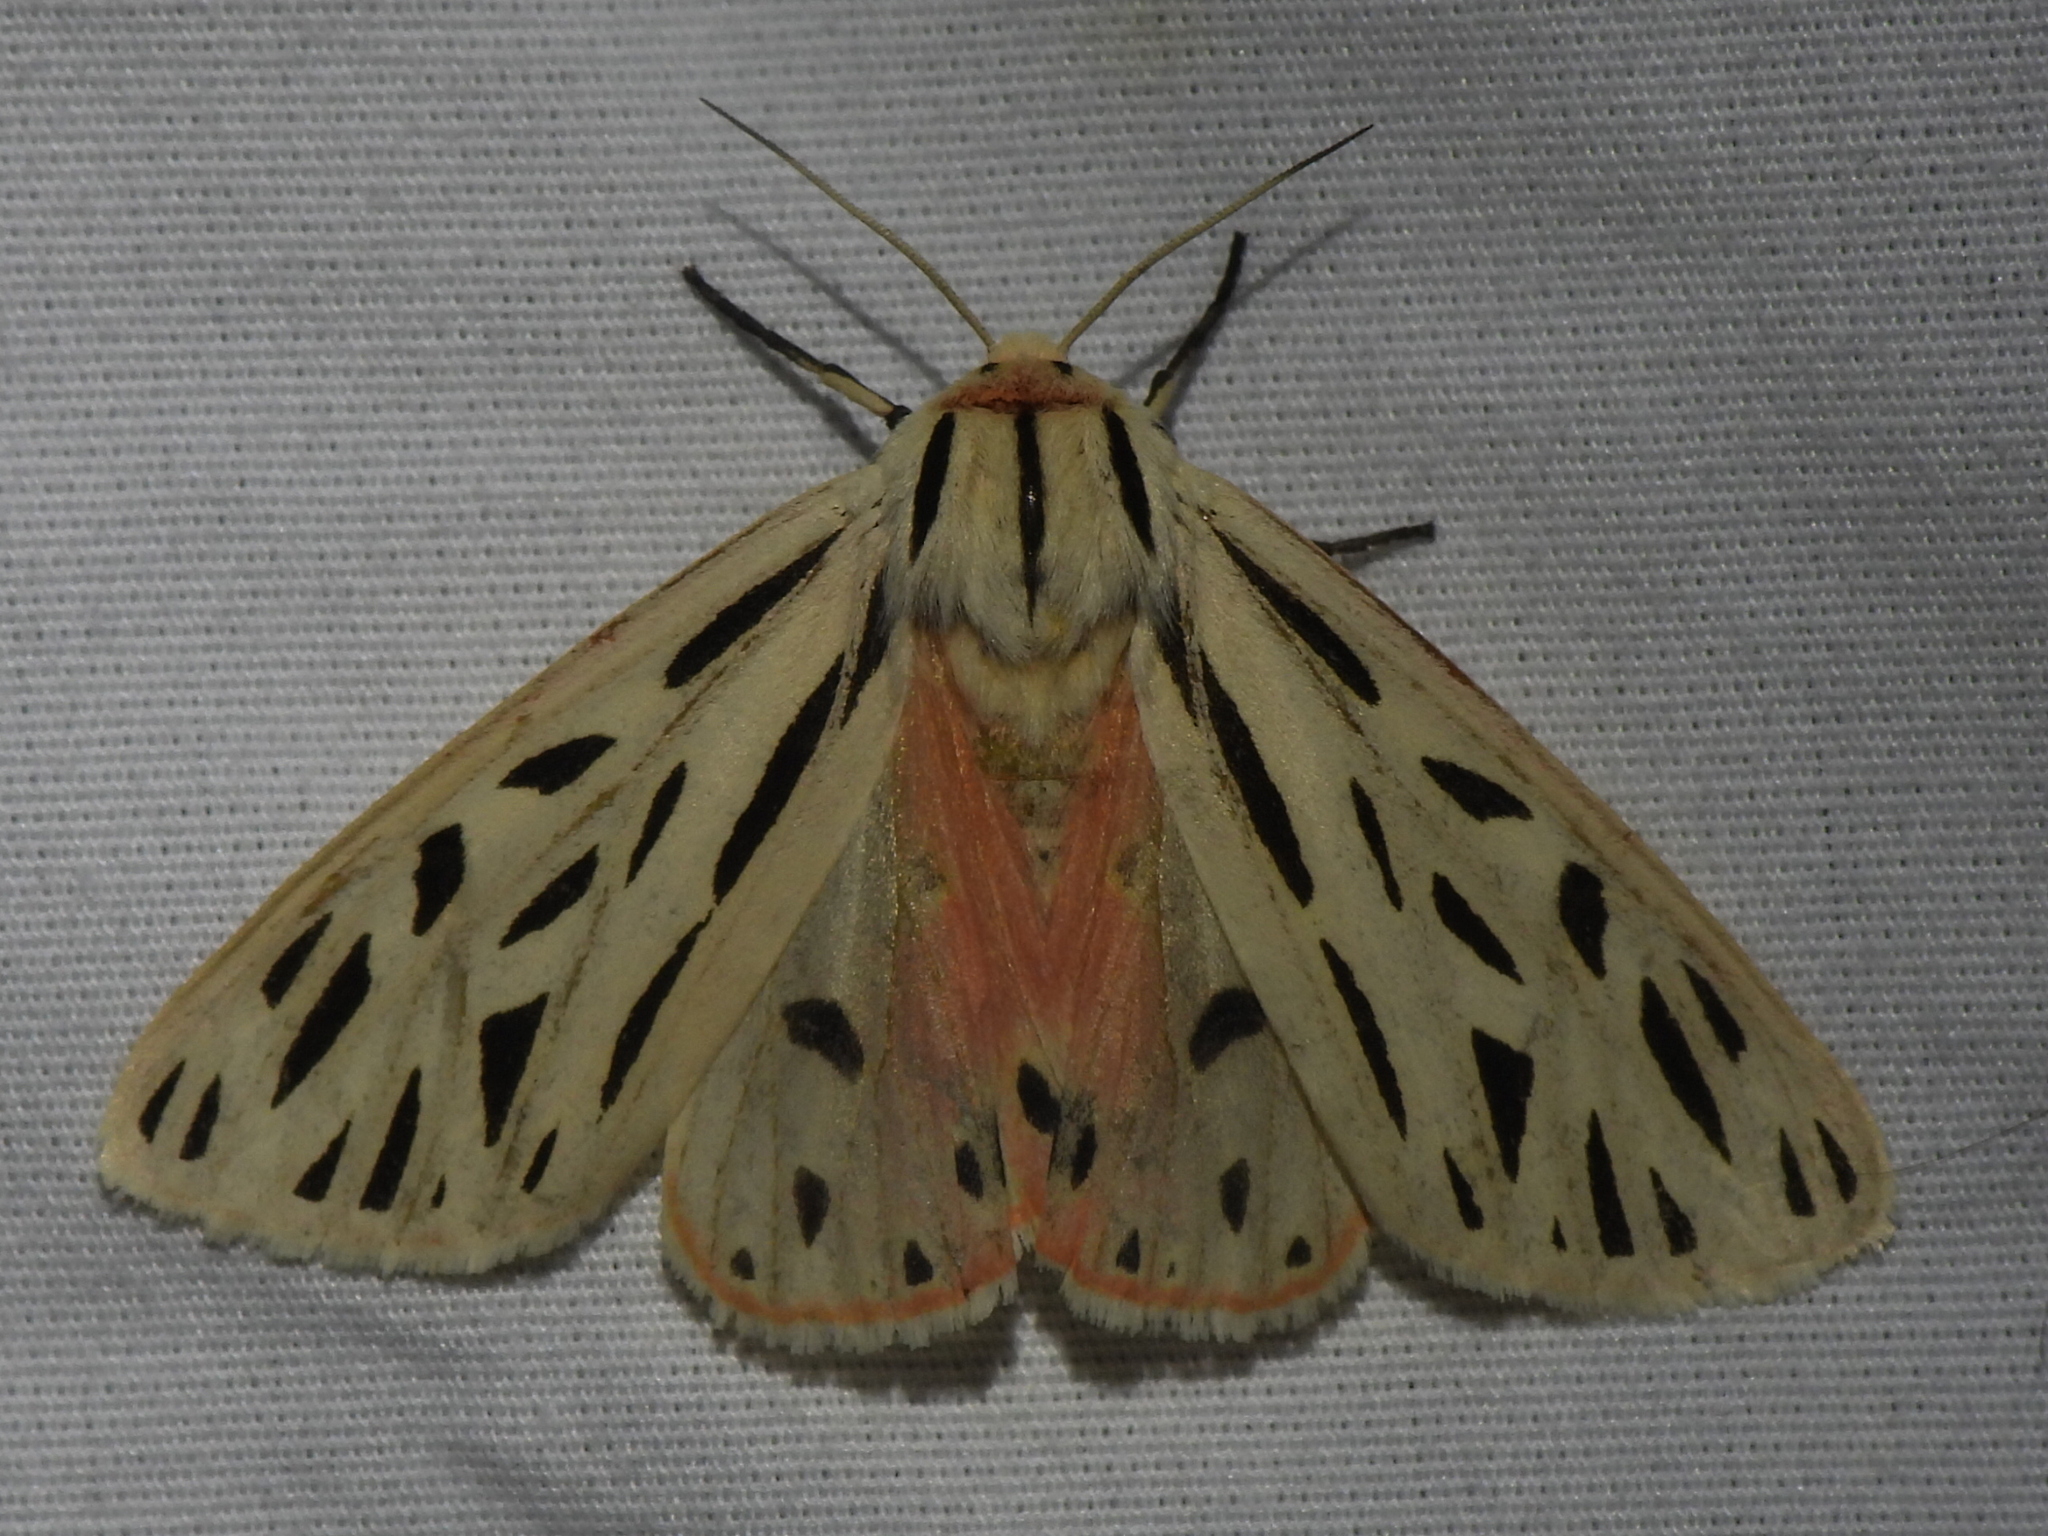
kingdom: Animalia
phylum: Arthropoda
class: Insecta
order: Lepidoptera
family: Erebidae
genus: Apantesis
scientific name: Apantesis arge
